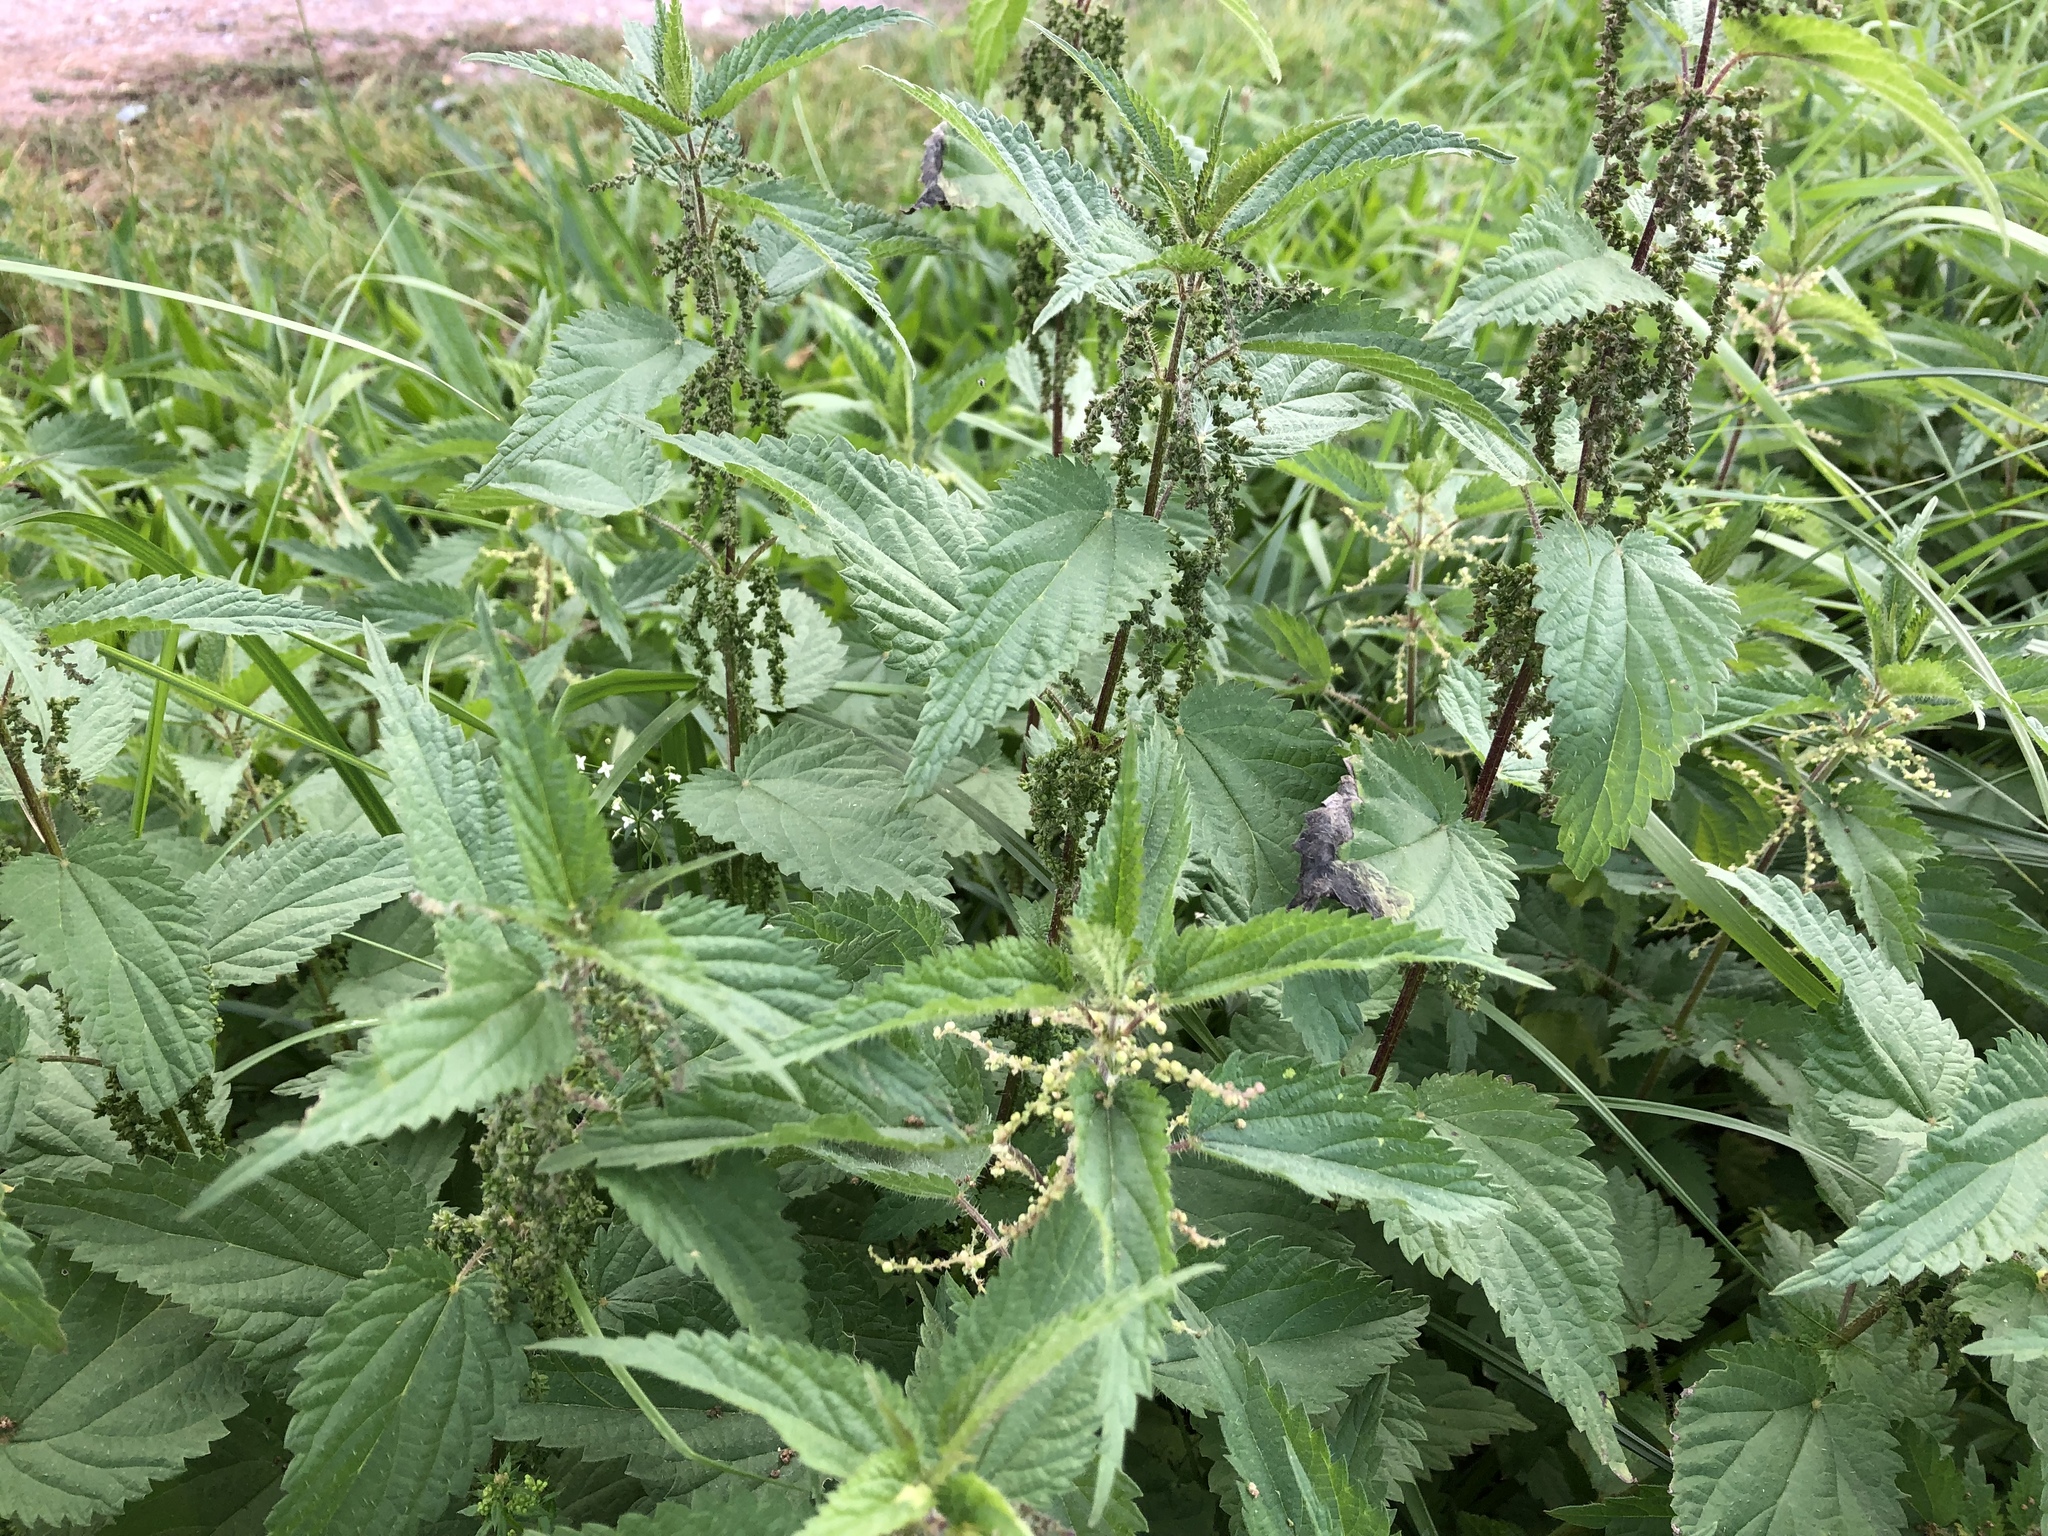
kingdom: Plantae
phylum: Tracheophyta
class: Magnoliopsida
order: Rosales
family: Urticaceae
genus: Urtica
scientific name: Urtica dioica
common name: Common nettle
